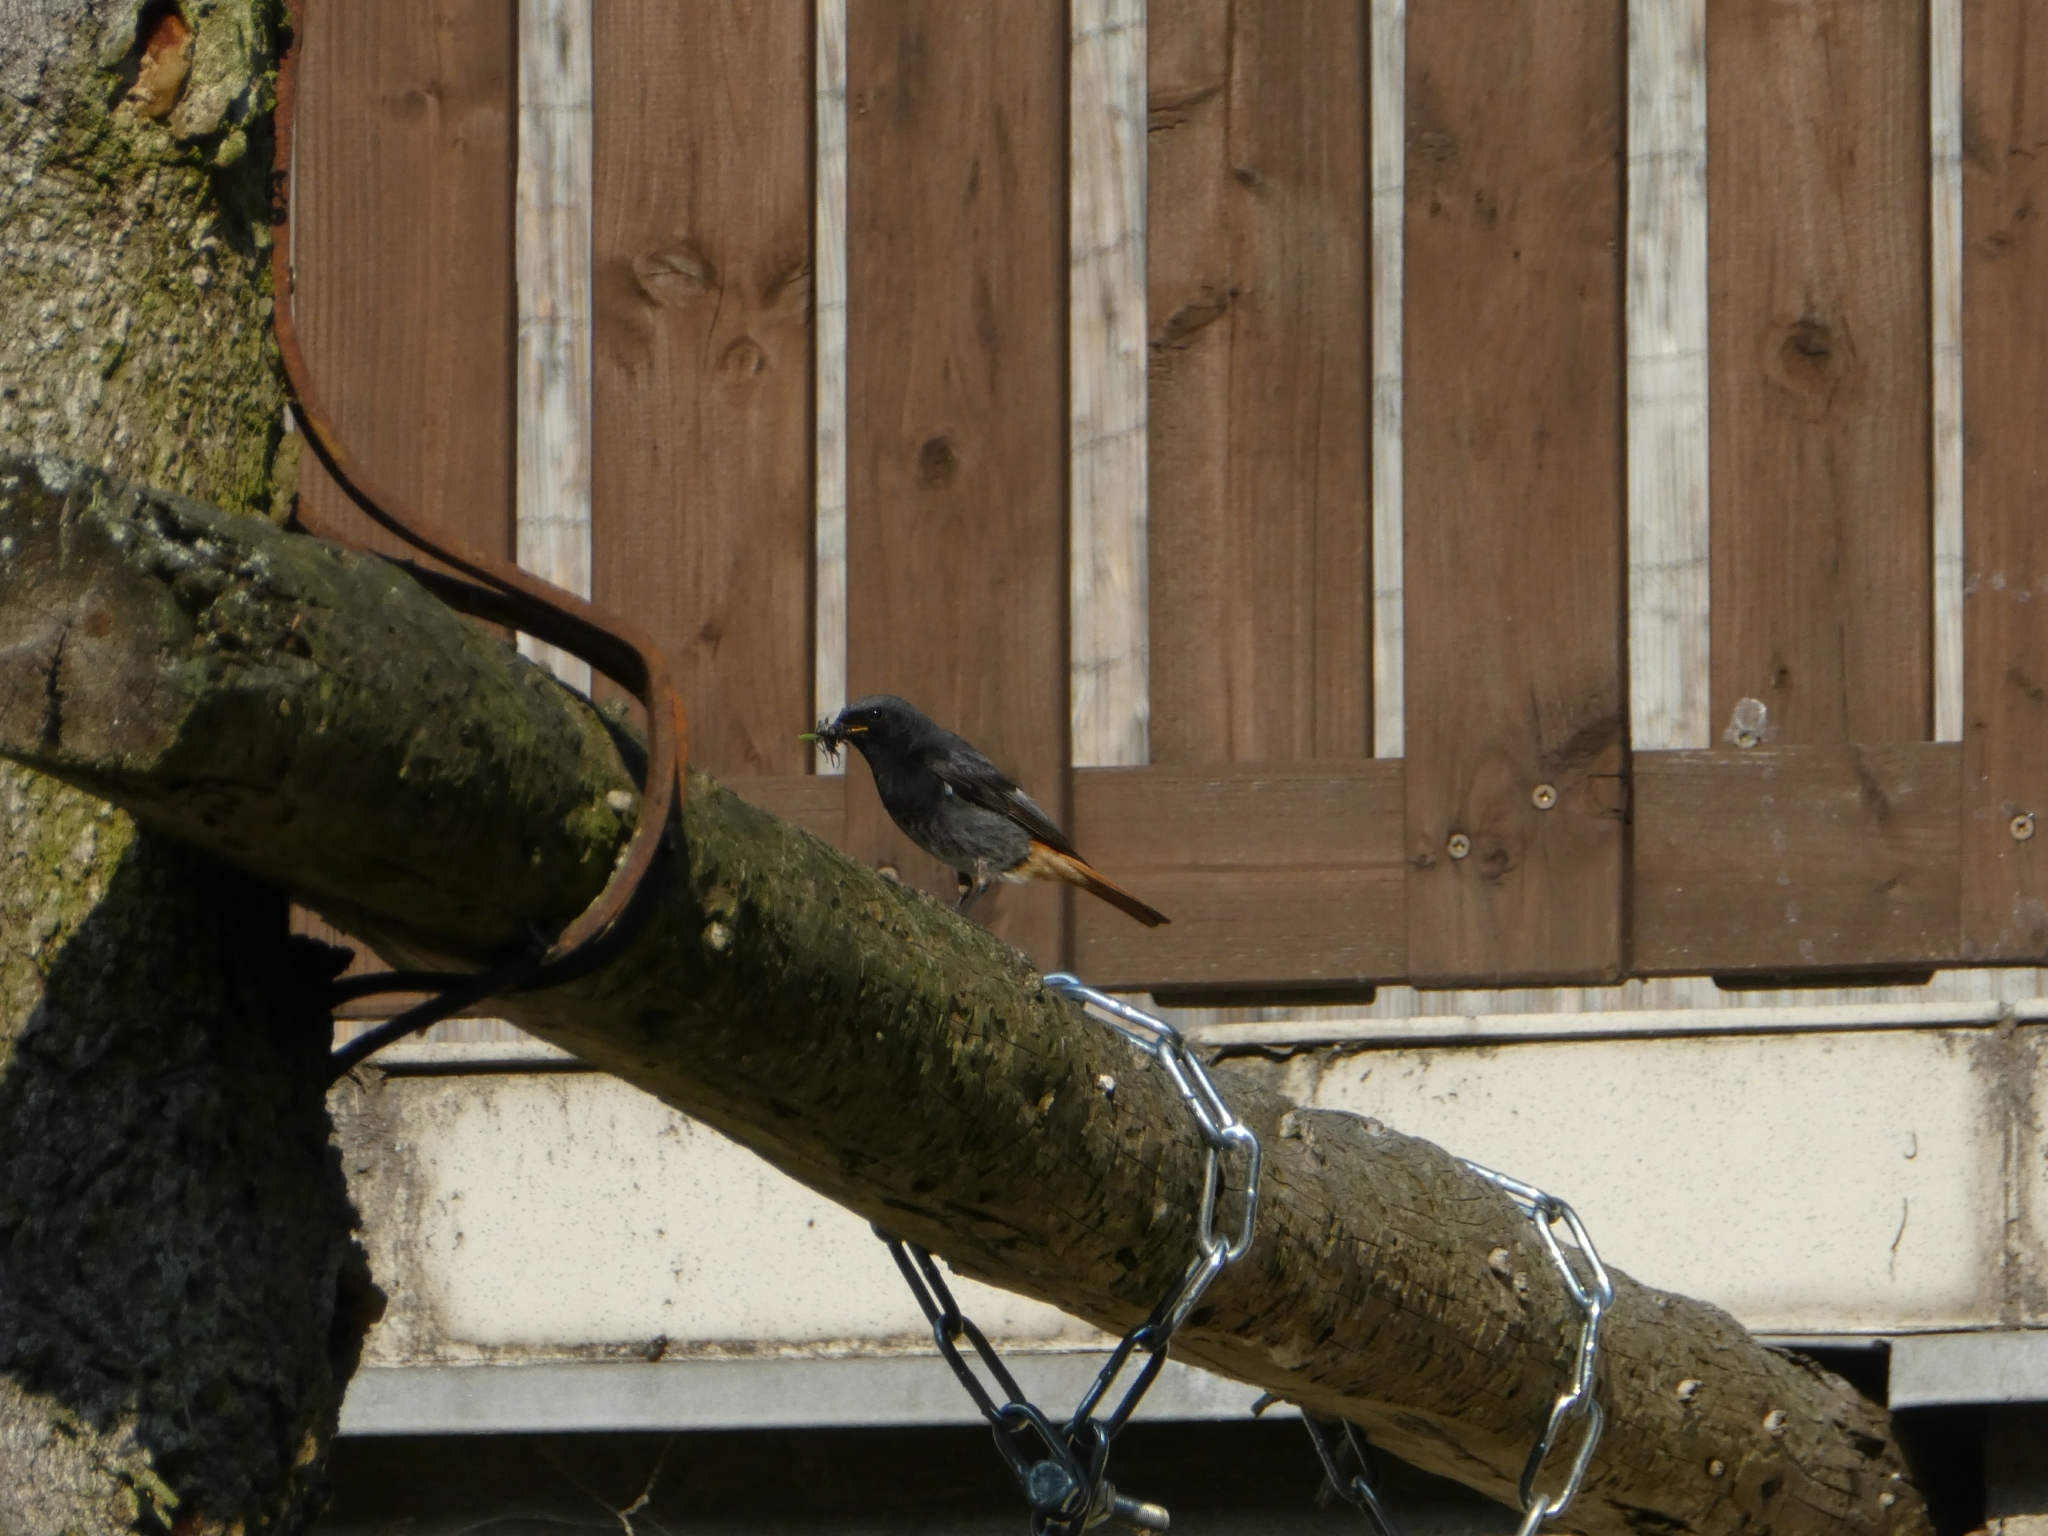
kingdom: Animalia
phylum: Chordata
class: Aves
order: Passeriformes
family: Muscicapidae
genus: Phoenicurus
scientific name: Phoenicurus ochruros
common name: Black redstart
